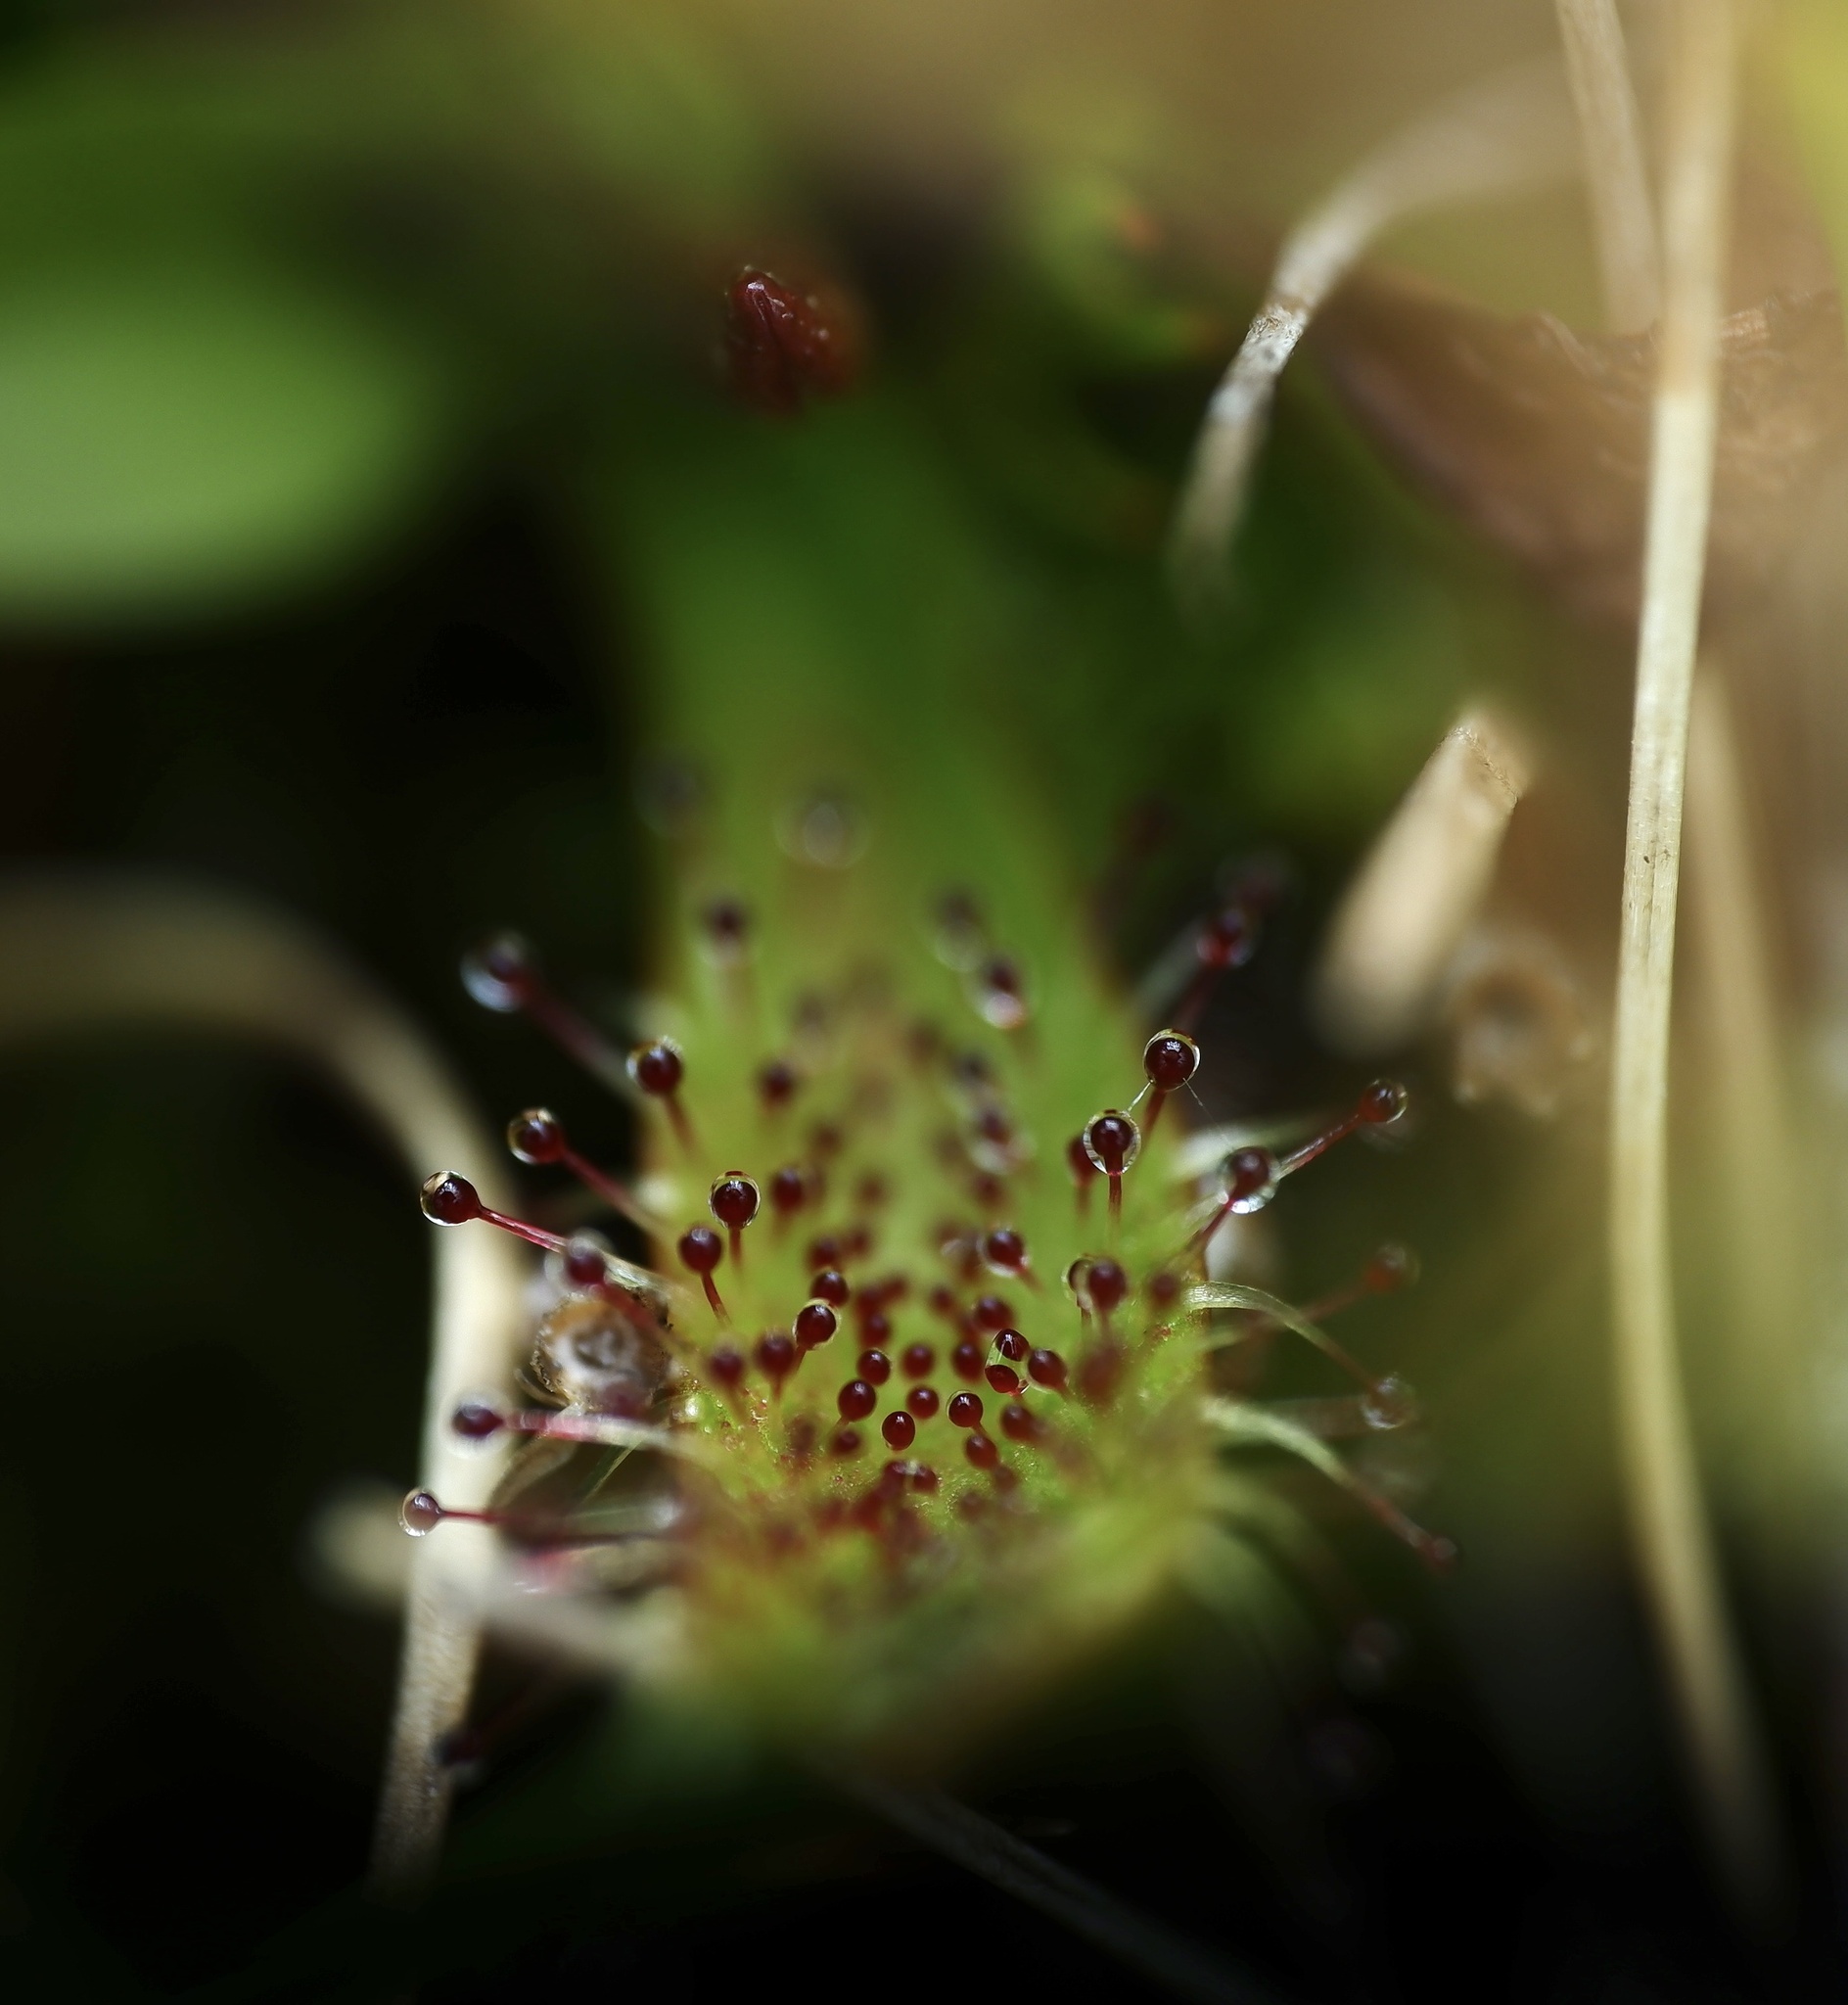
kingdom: Plantae
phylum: Tracheophyta
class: Magnoliopsida
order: Caryophyllales
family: Droseraceae
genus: Drosera
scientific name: Drosera arcturi
